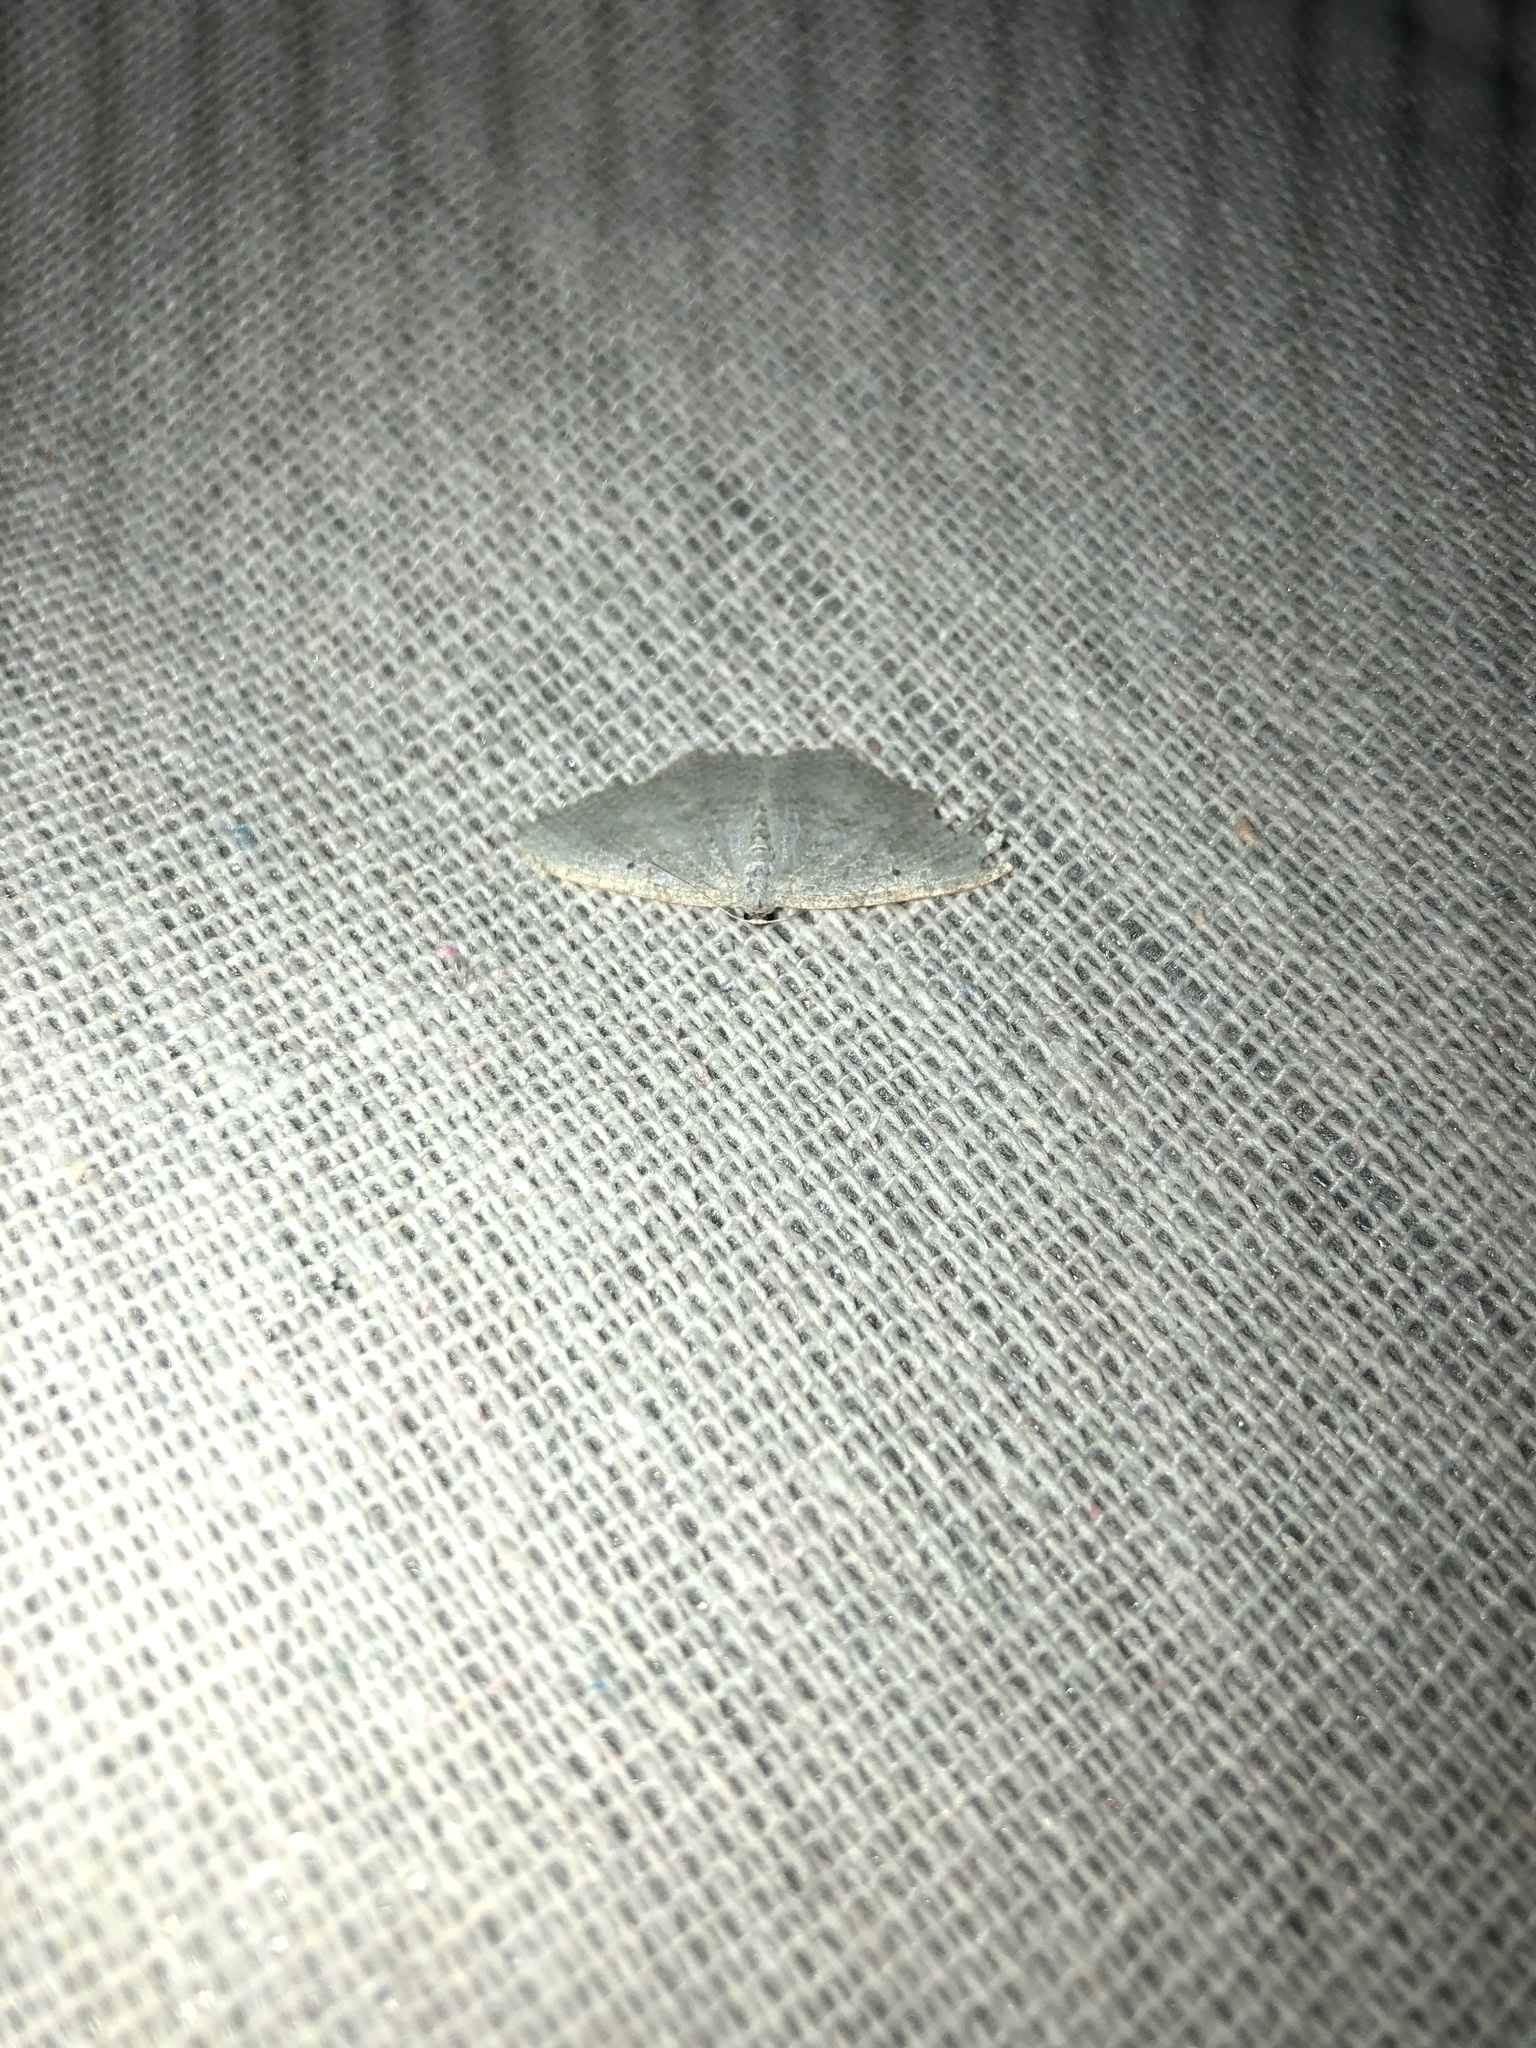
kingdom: Animalia
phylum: Arthropoda
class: Insecta
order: Lepidoptera
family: Geometridae
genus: Poecilasthena
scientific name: Poecilasthena pulchraria
